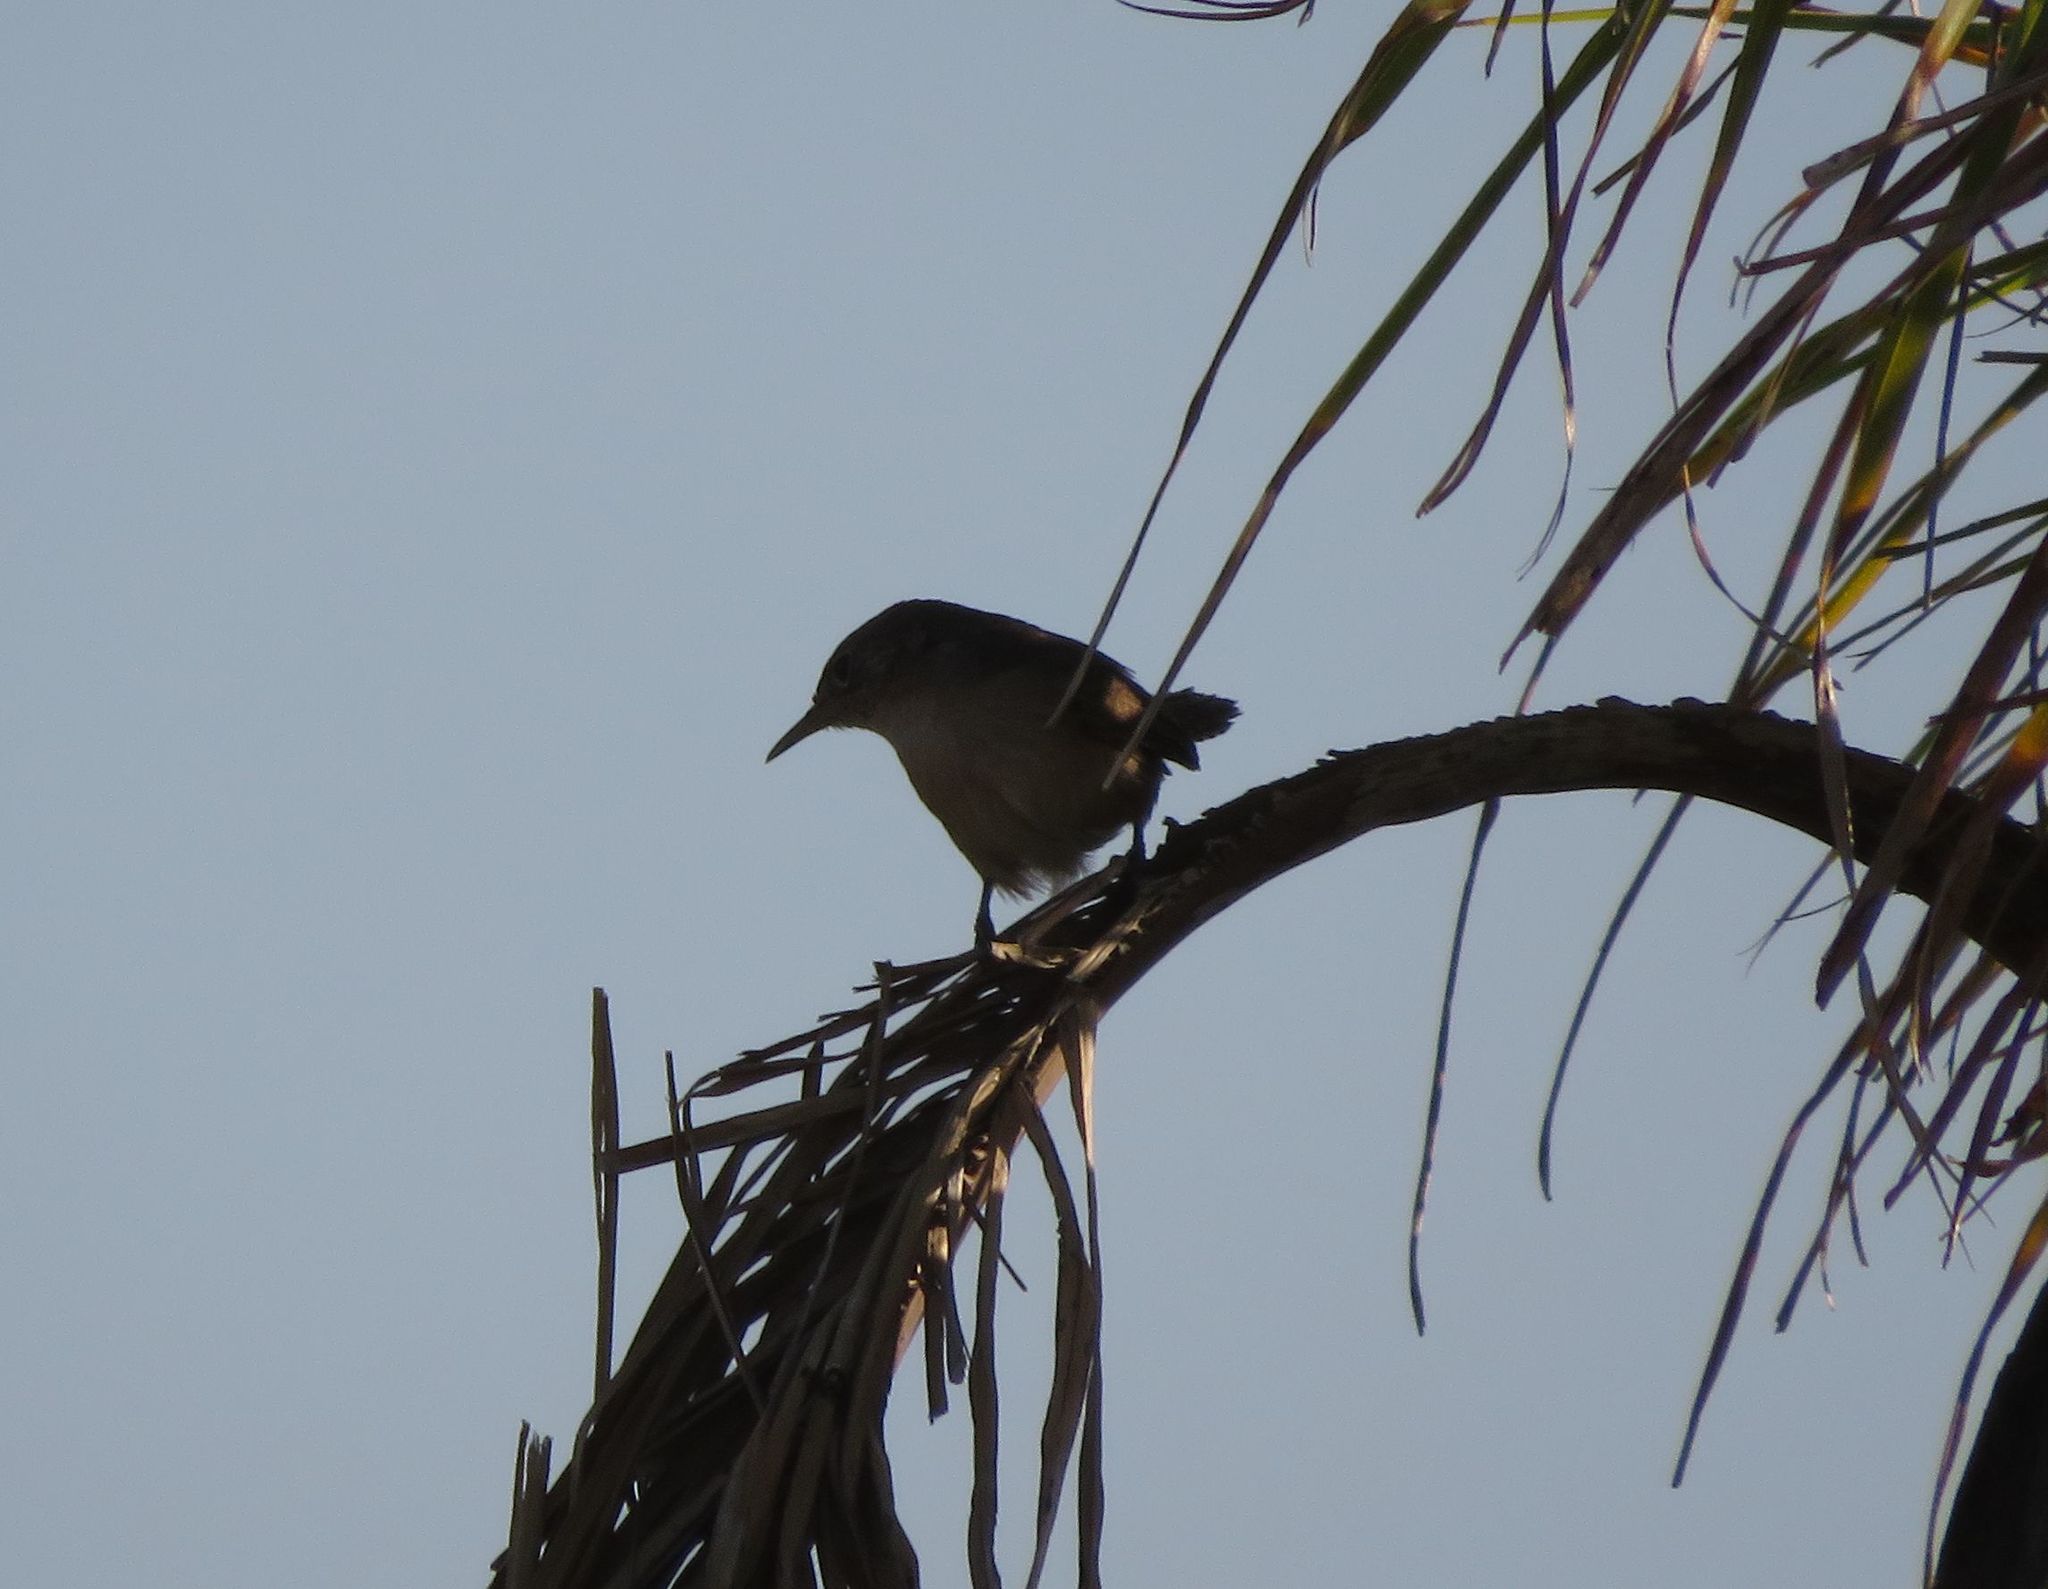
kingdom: Animalia
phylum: Chordata
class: Aves
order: Passeriformes
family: Troglodytidae
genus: Troglodytes
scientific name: Troglodytes aedon
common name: House wren
